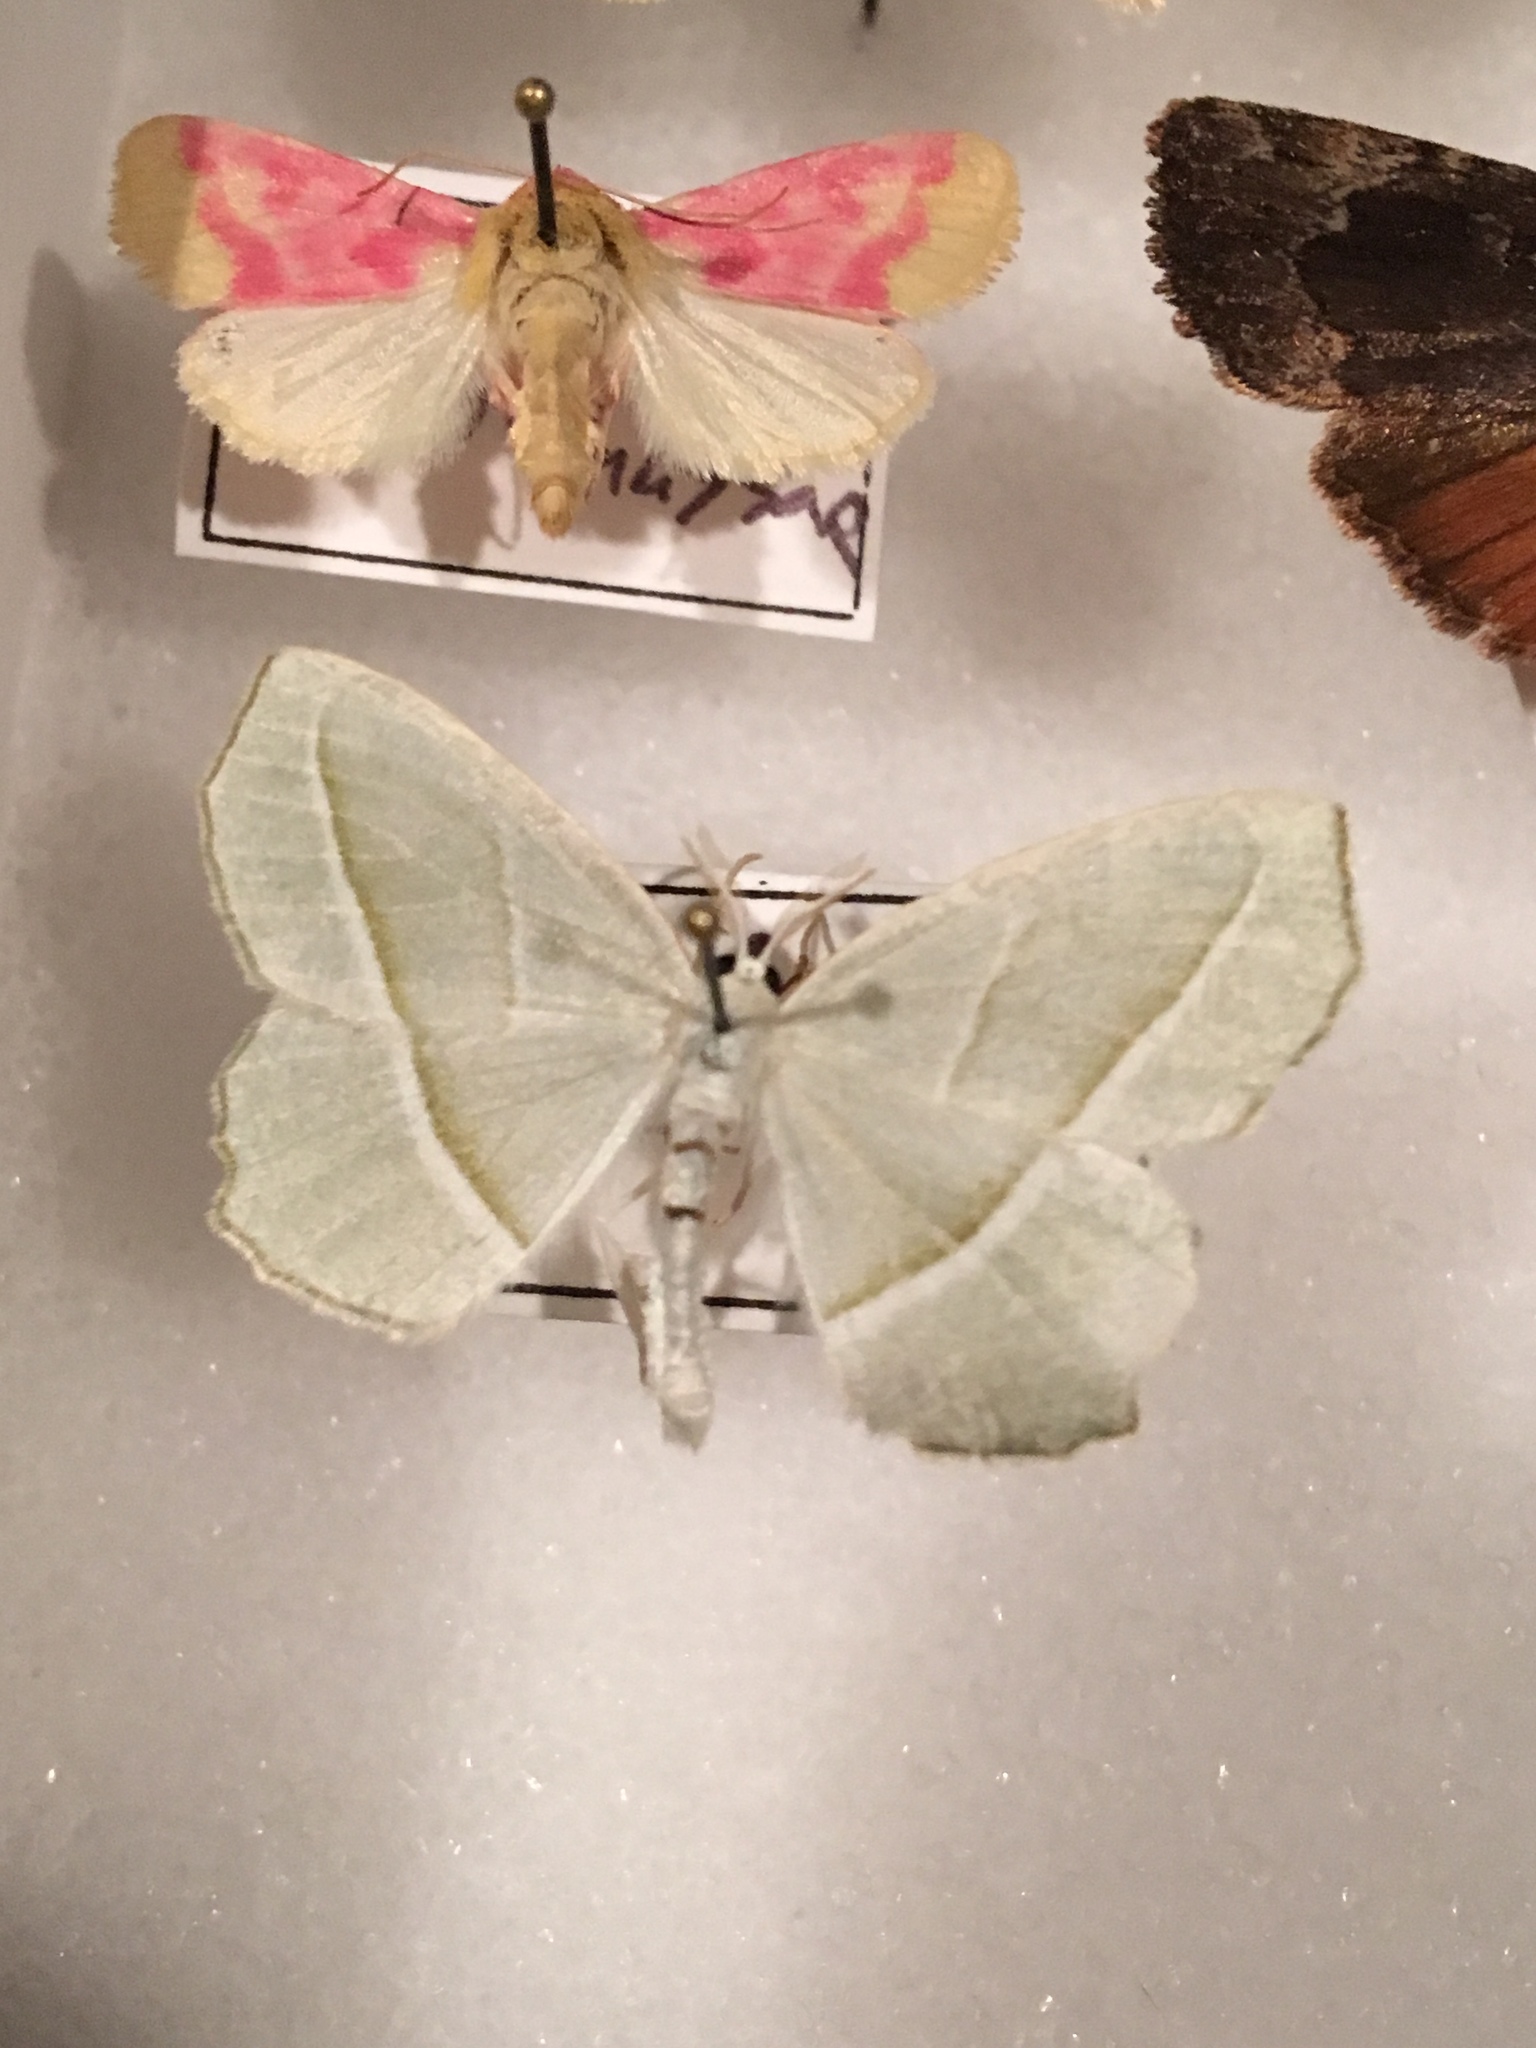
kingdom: Animalia
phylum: Arthropoda
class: Insecta
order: Lepidoptera
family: Geometridae
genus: Campaea
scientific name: Campaea perlata
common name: Fringed looper
